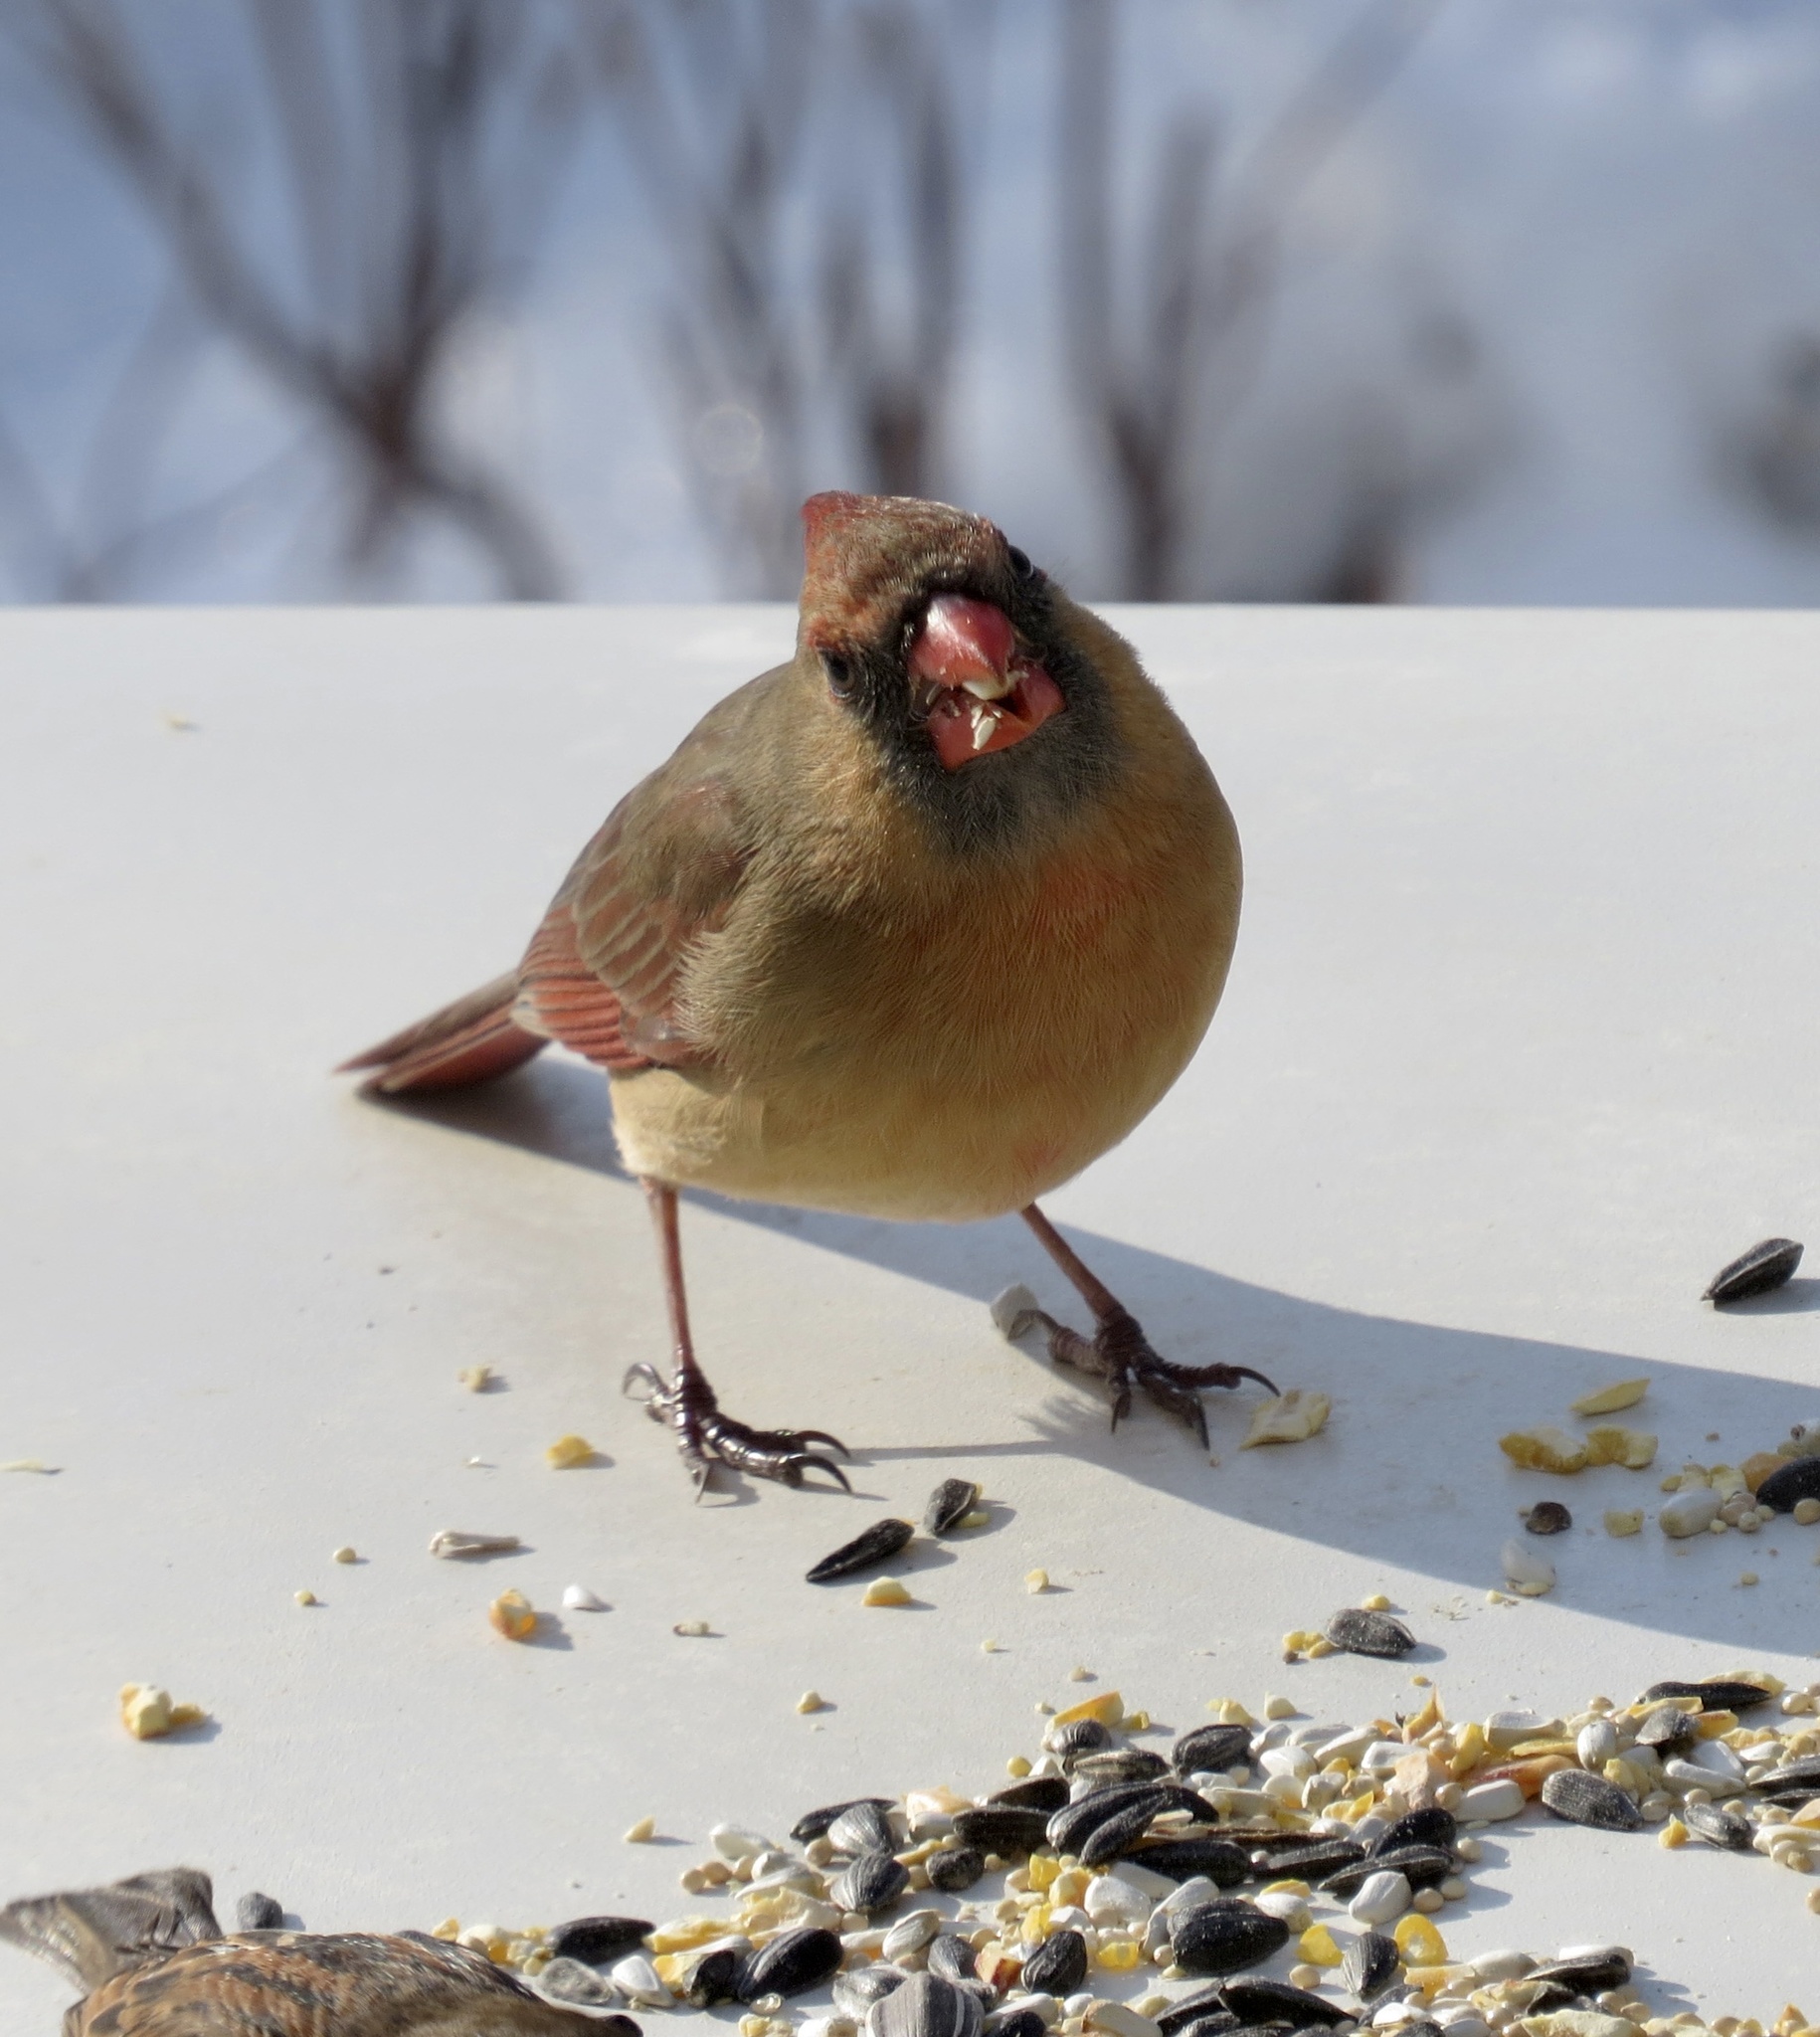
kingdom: Animalia
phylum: Chordata
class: Aves
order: Passeriformes
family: Cardinalidae
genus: Cardinalis
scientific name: Cardinalis cardinalis
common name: Northern cardinal
